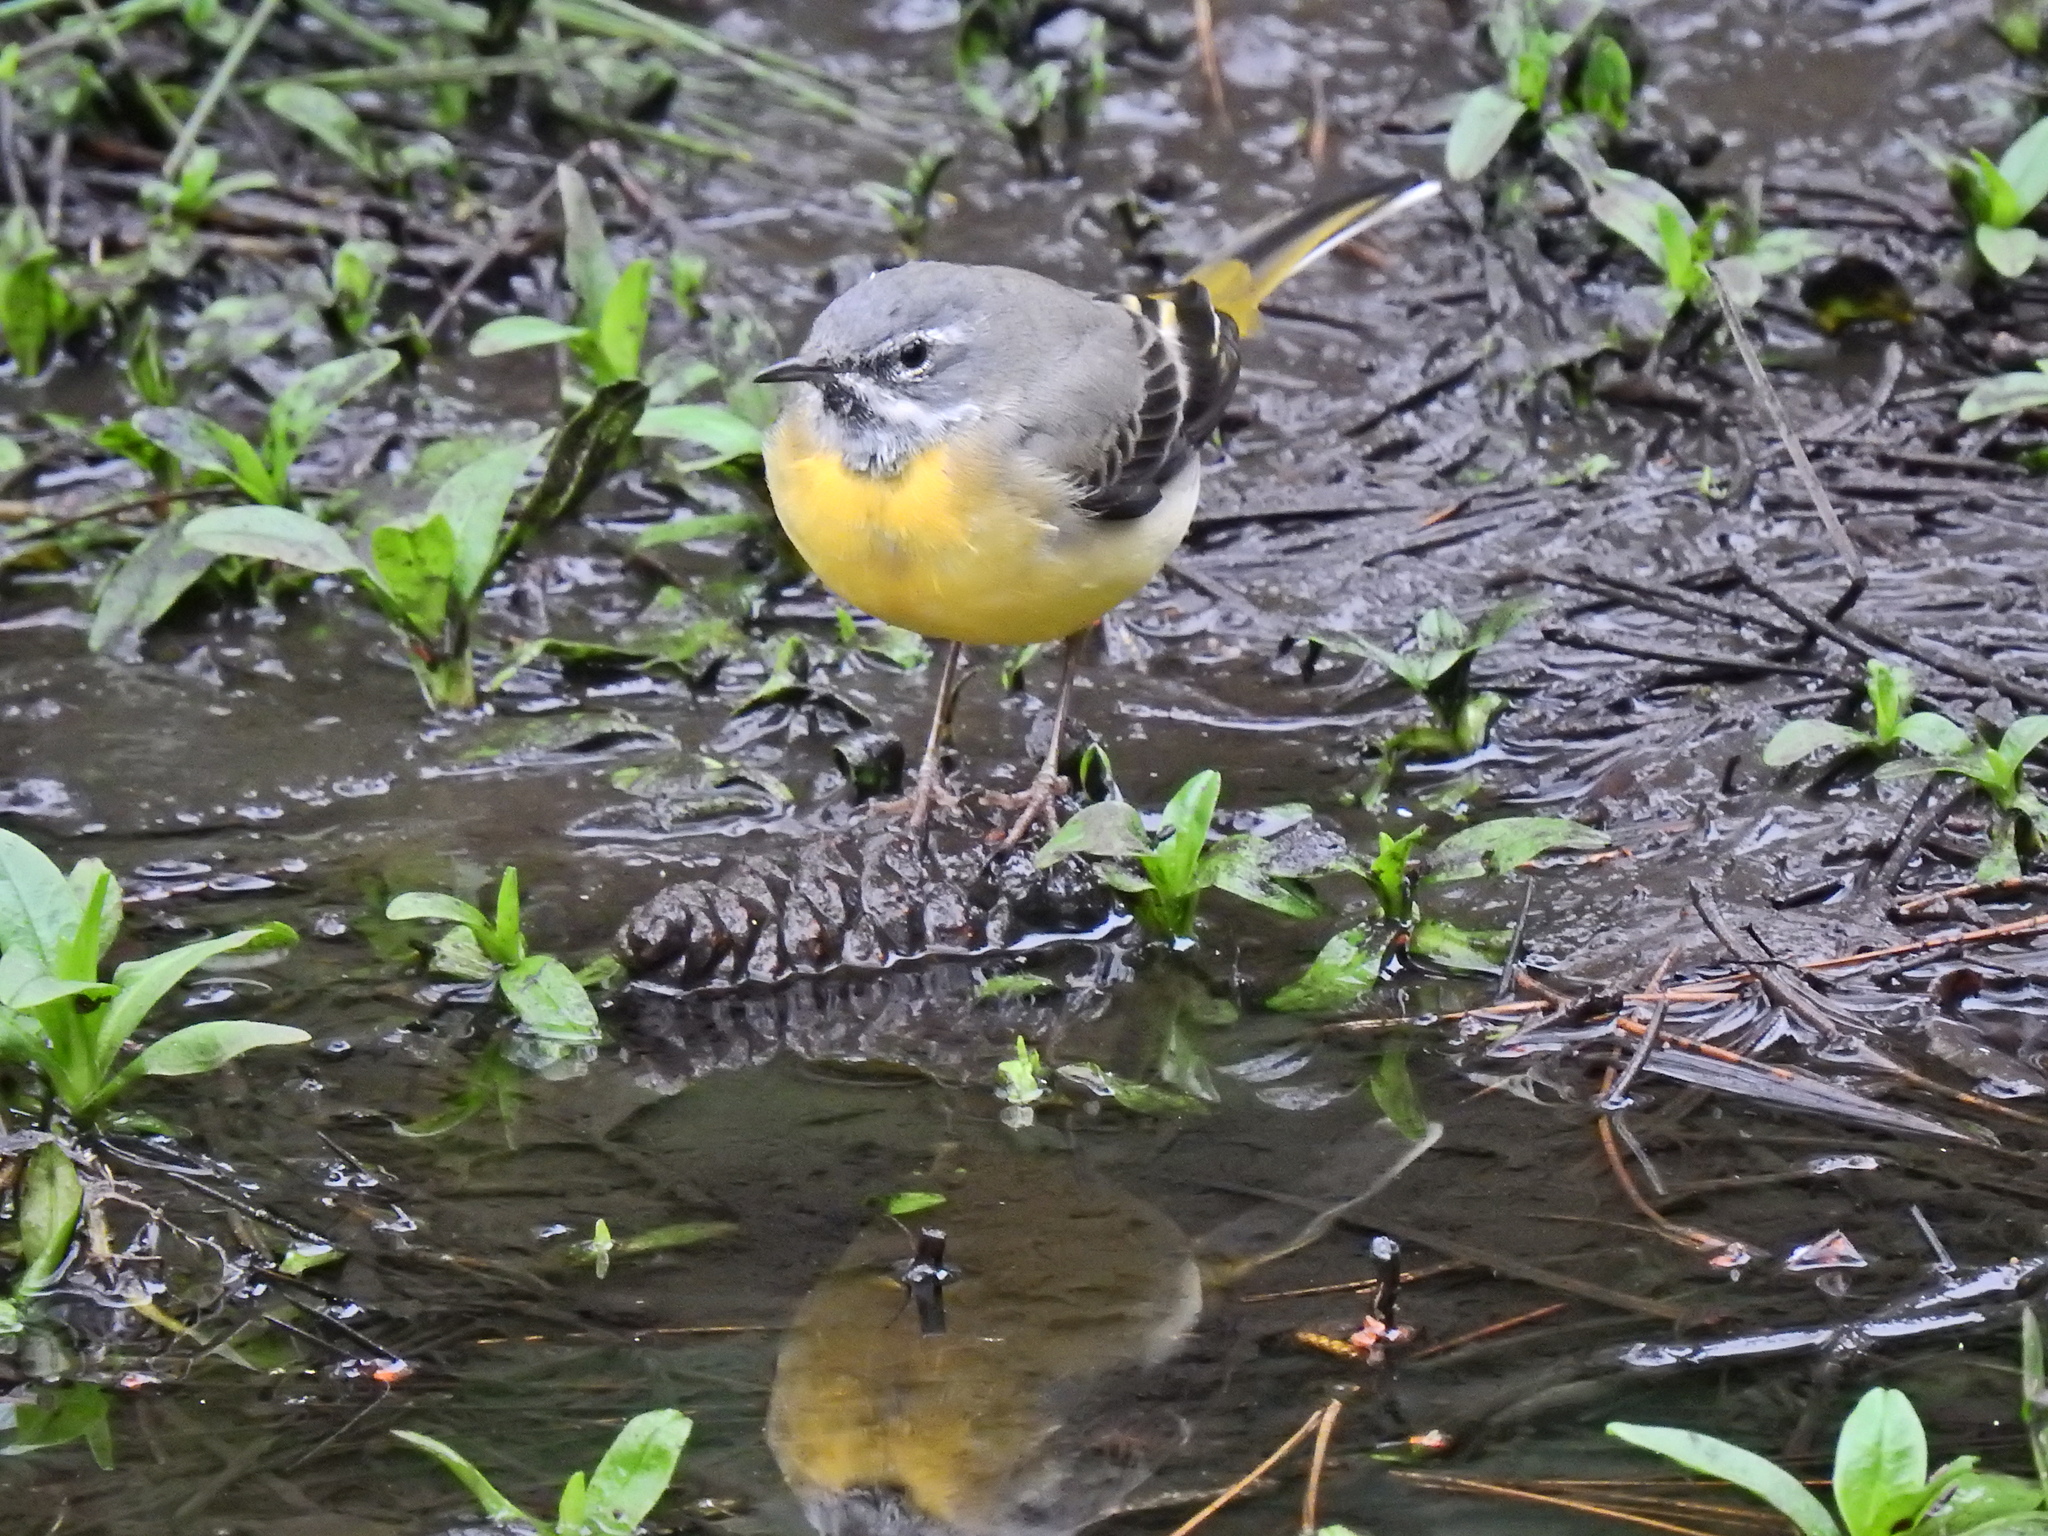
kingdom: Animalia
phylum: Chordata
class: Aves
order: Passeriformes
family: Motacillidae
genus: Motacilla
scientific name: Motacilla cinerea
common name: Grey wagtail
